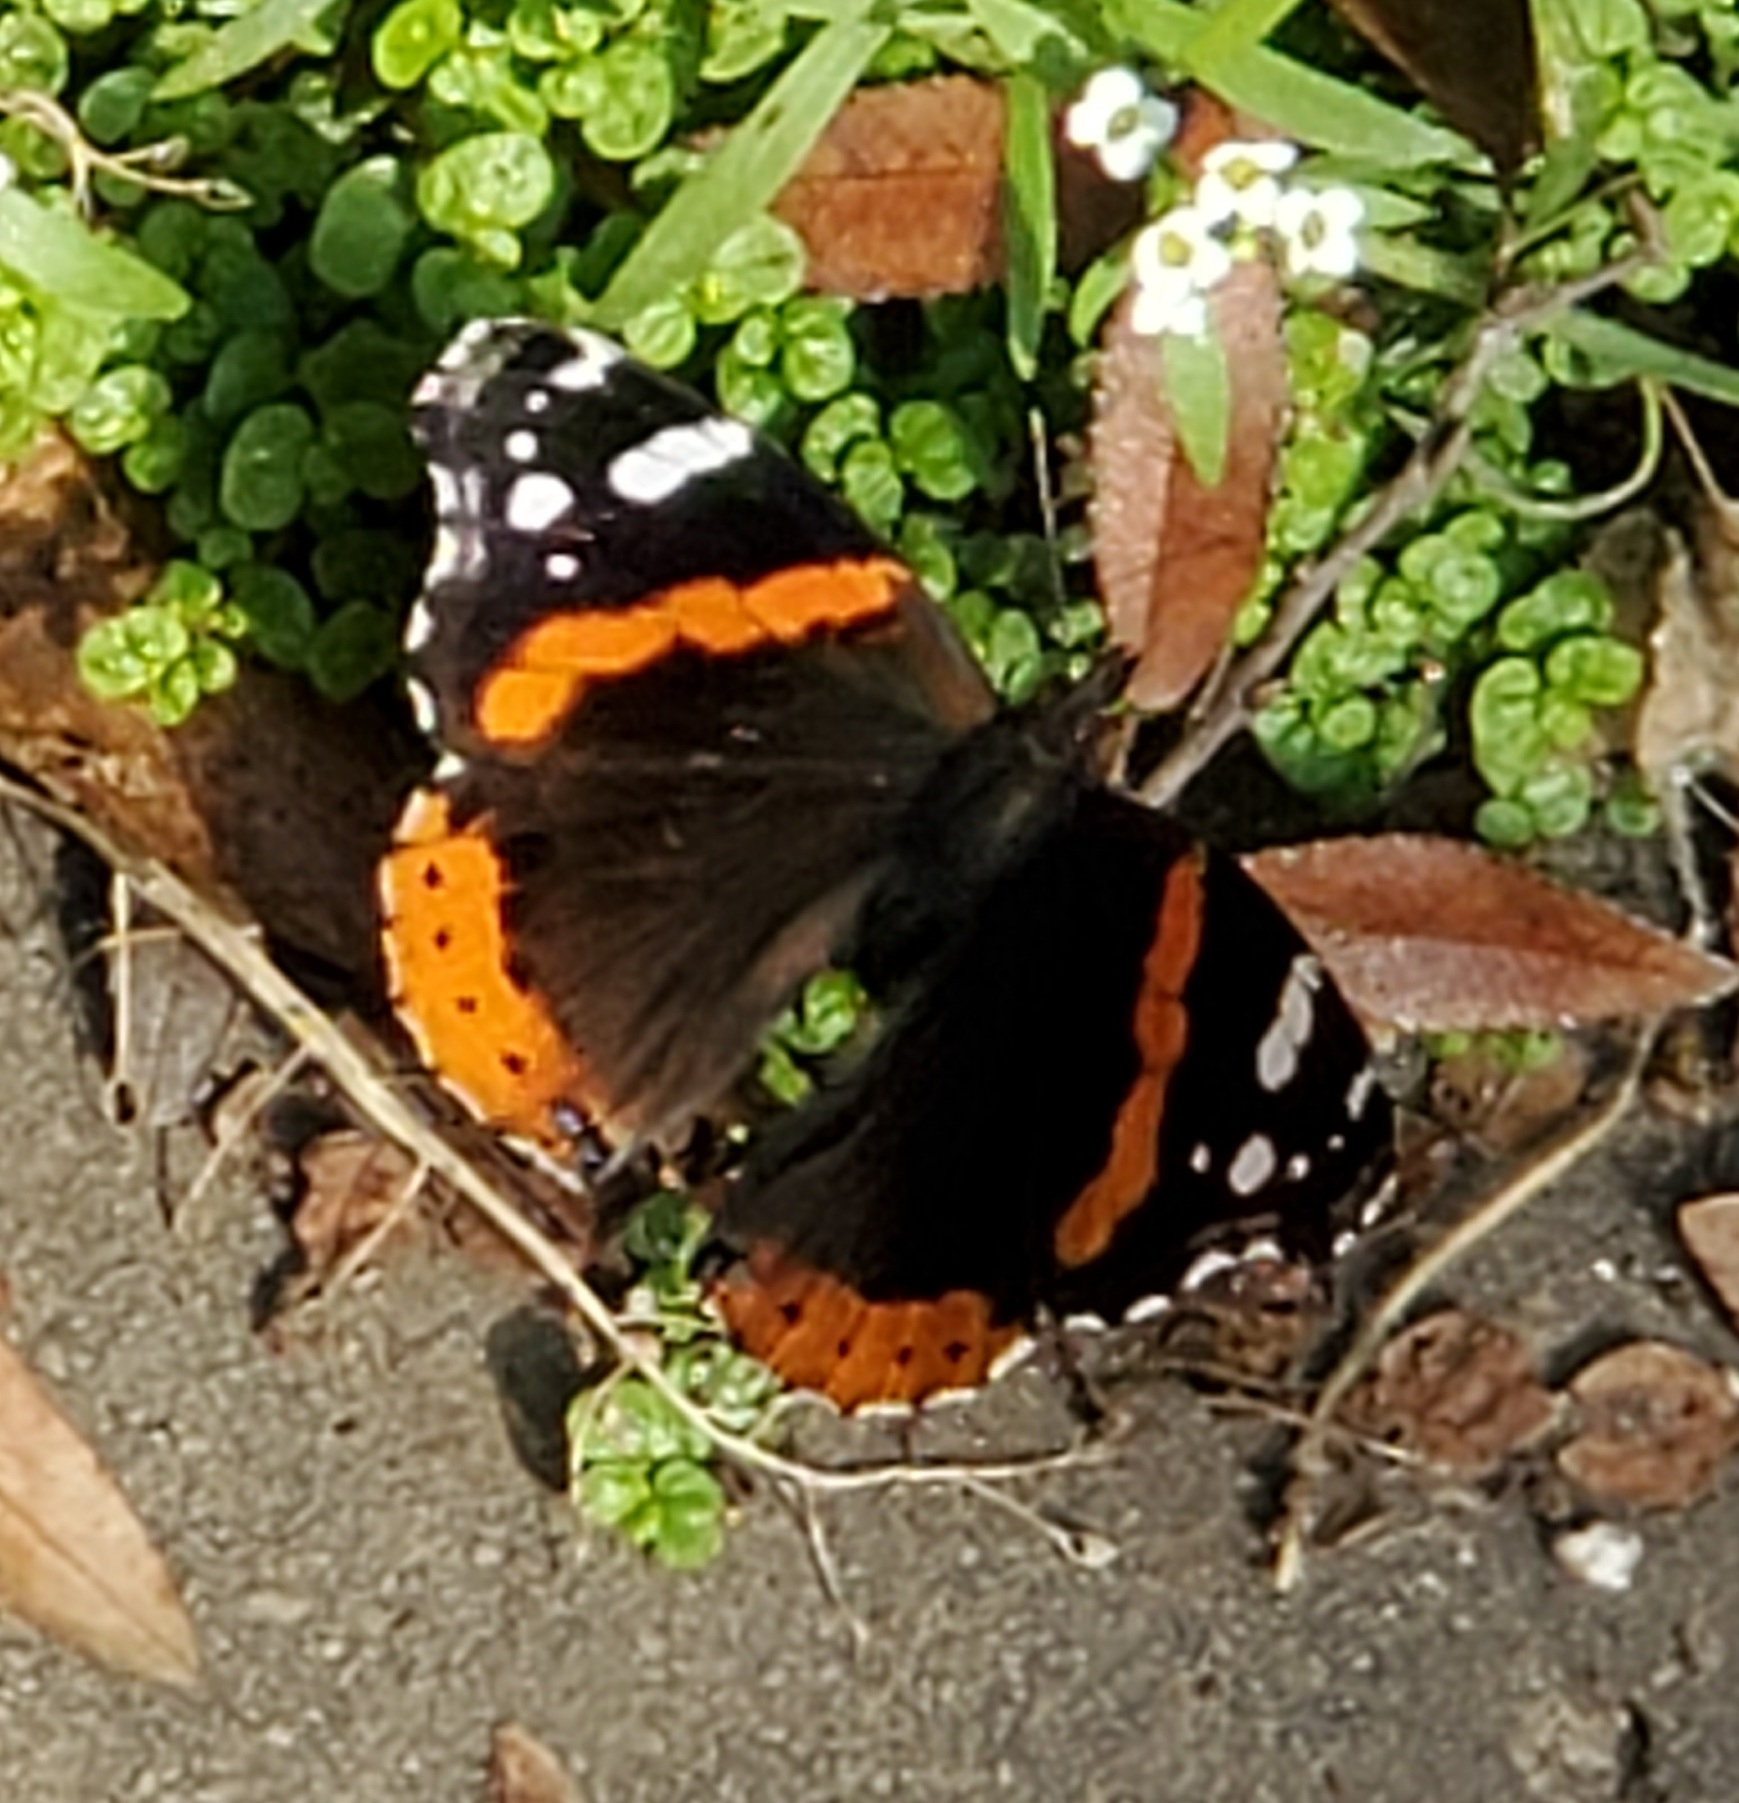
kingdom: Animalia
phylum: Arthropoda
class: Insecta
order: Lepidoptera
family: Nymphalidae
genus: Vanessa
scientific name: Vanessa atalanta
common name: Red admiral
